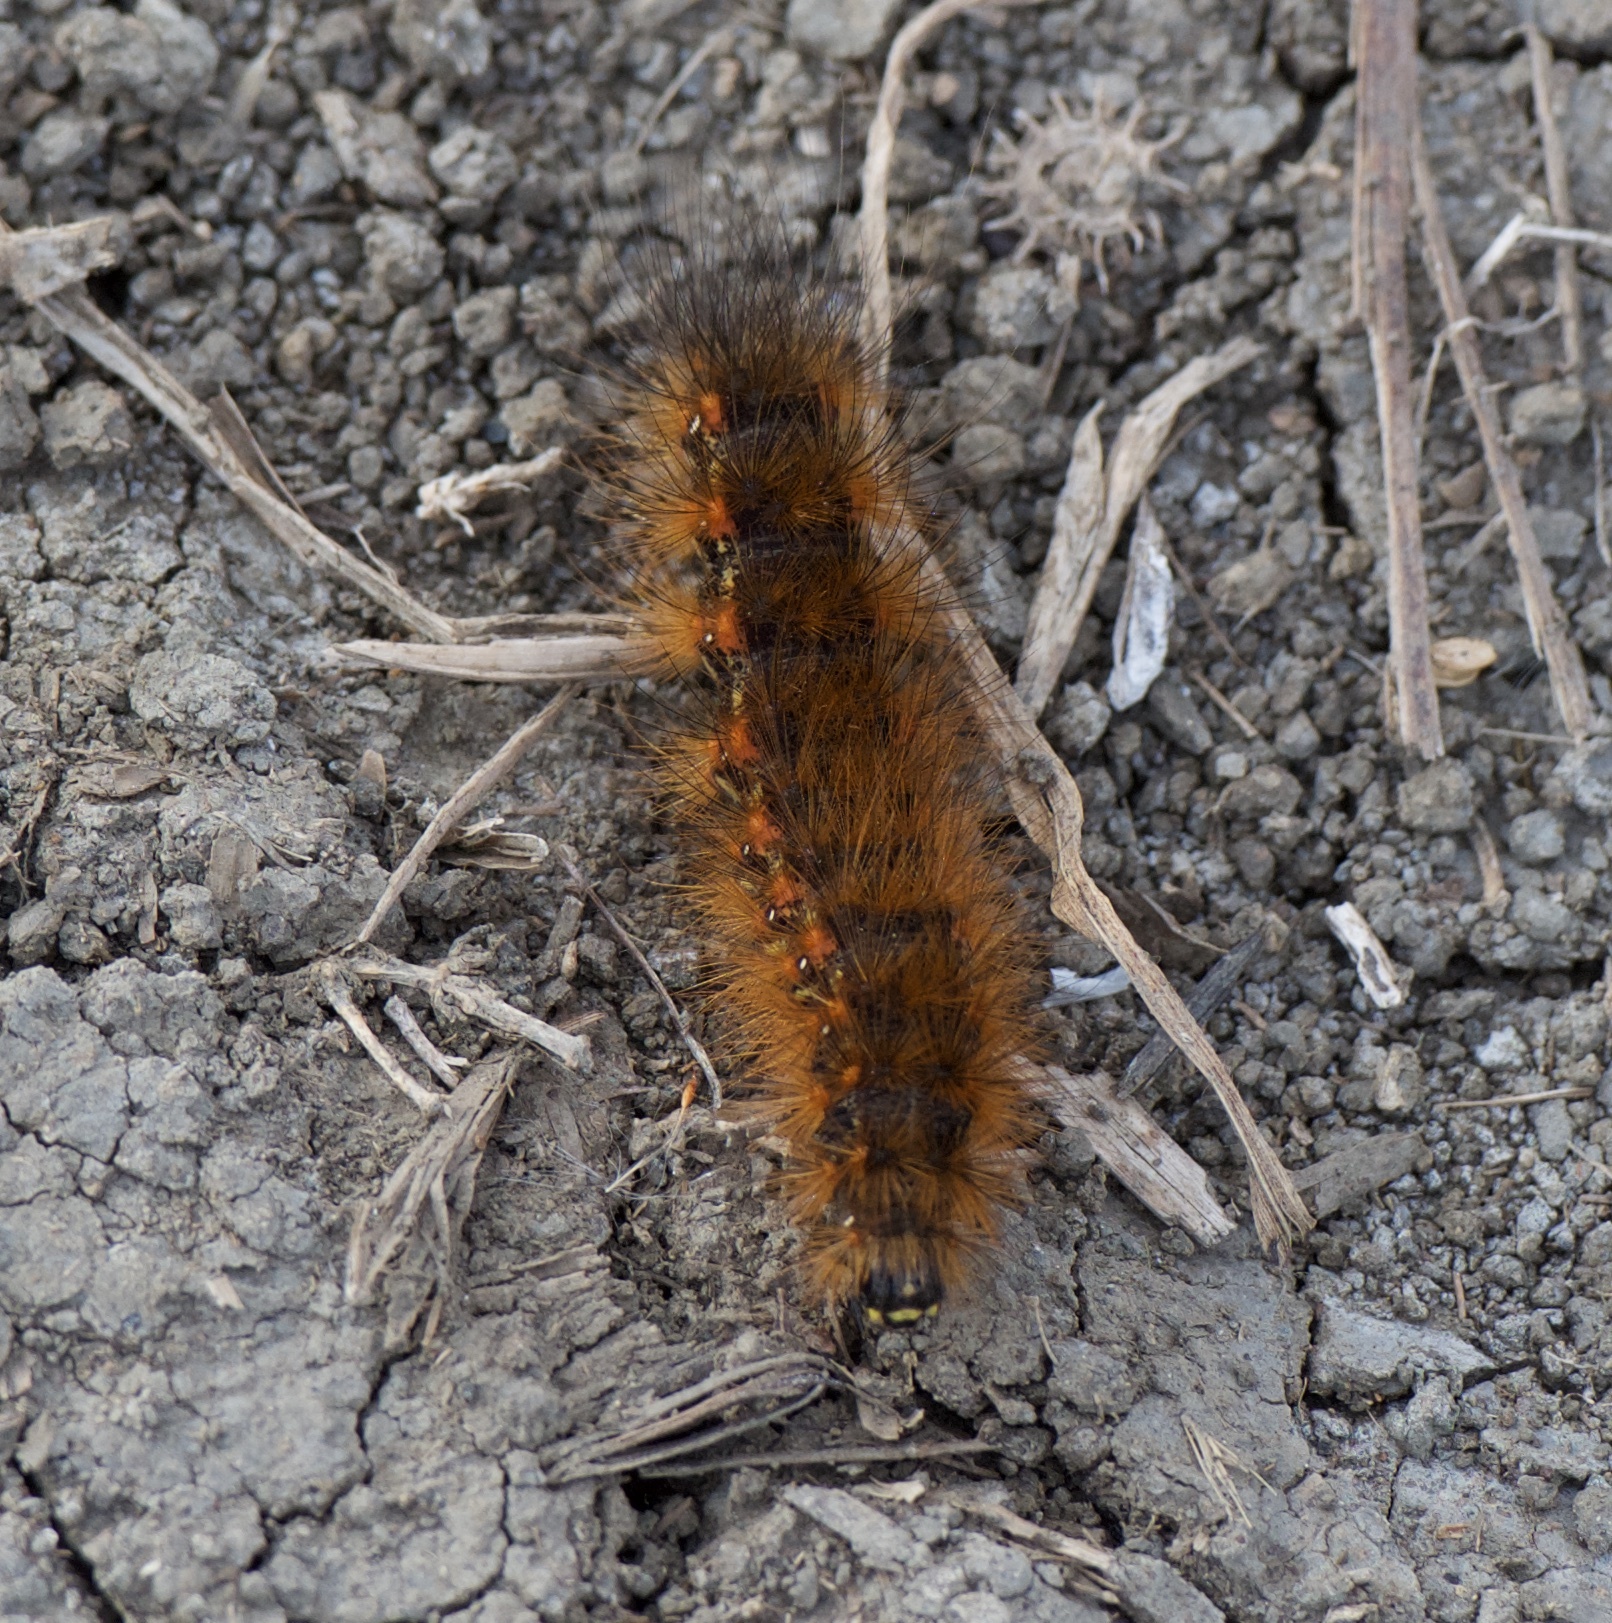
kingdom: Animalia
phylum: Arthropoda
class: Insecta
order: Lepidoptera
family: Erebidae
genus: Estigmene
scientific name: Estigmene acrea
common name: Salt marsh moth
